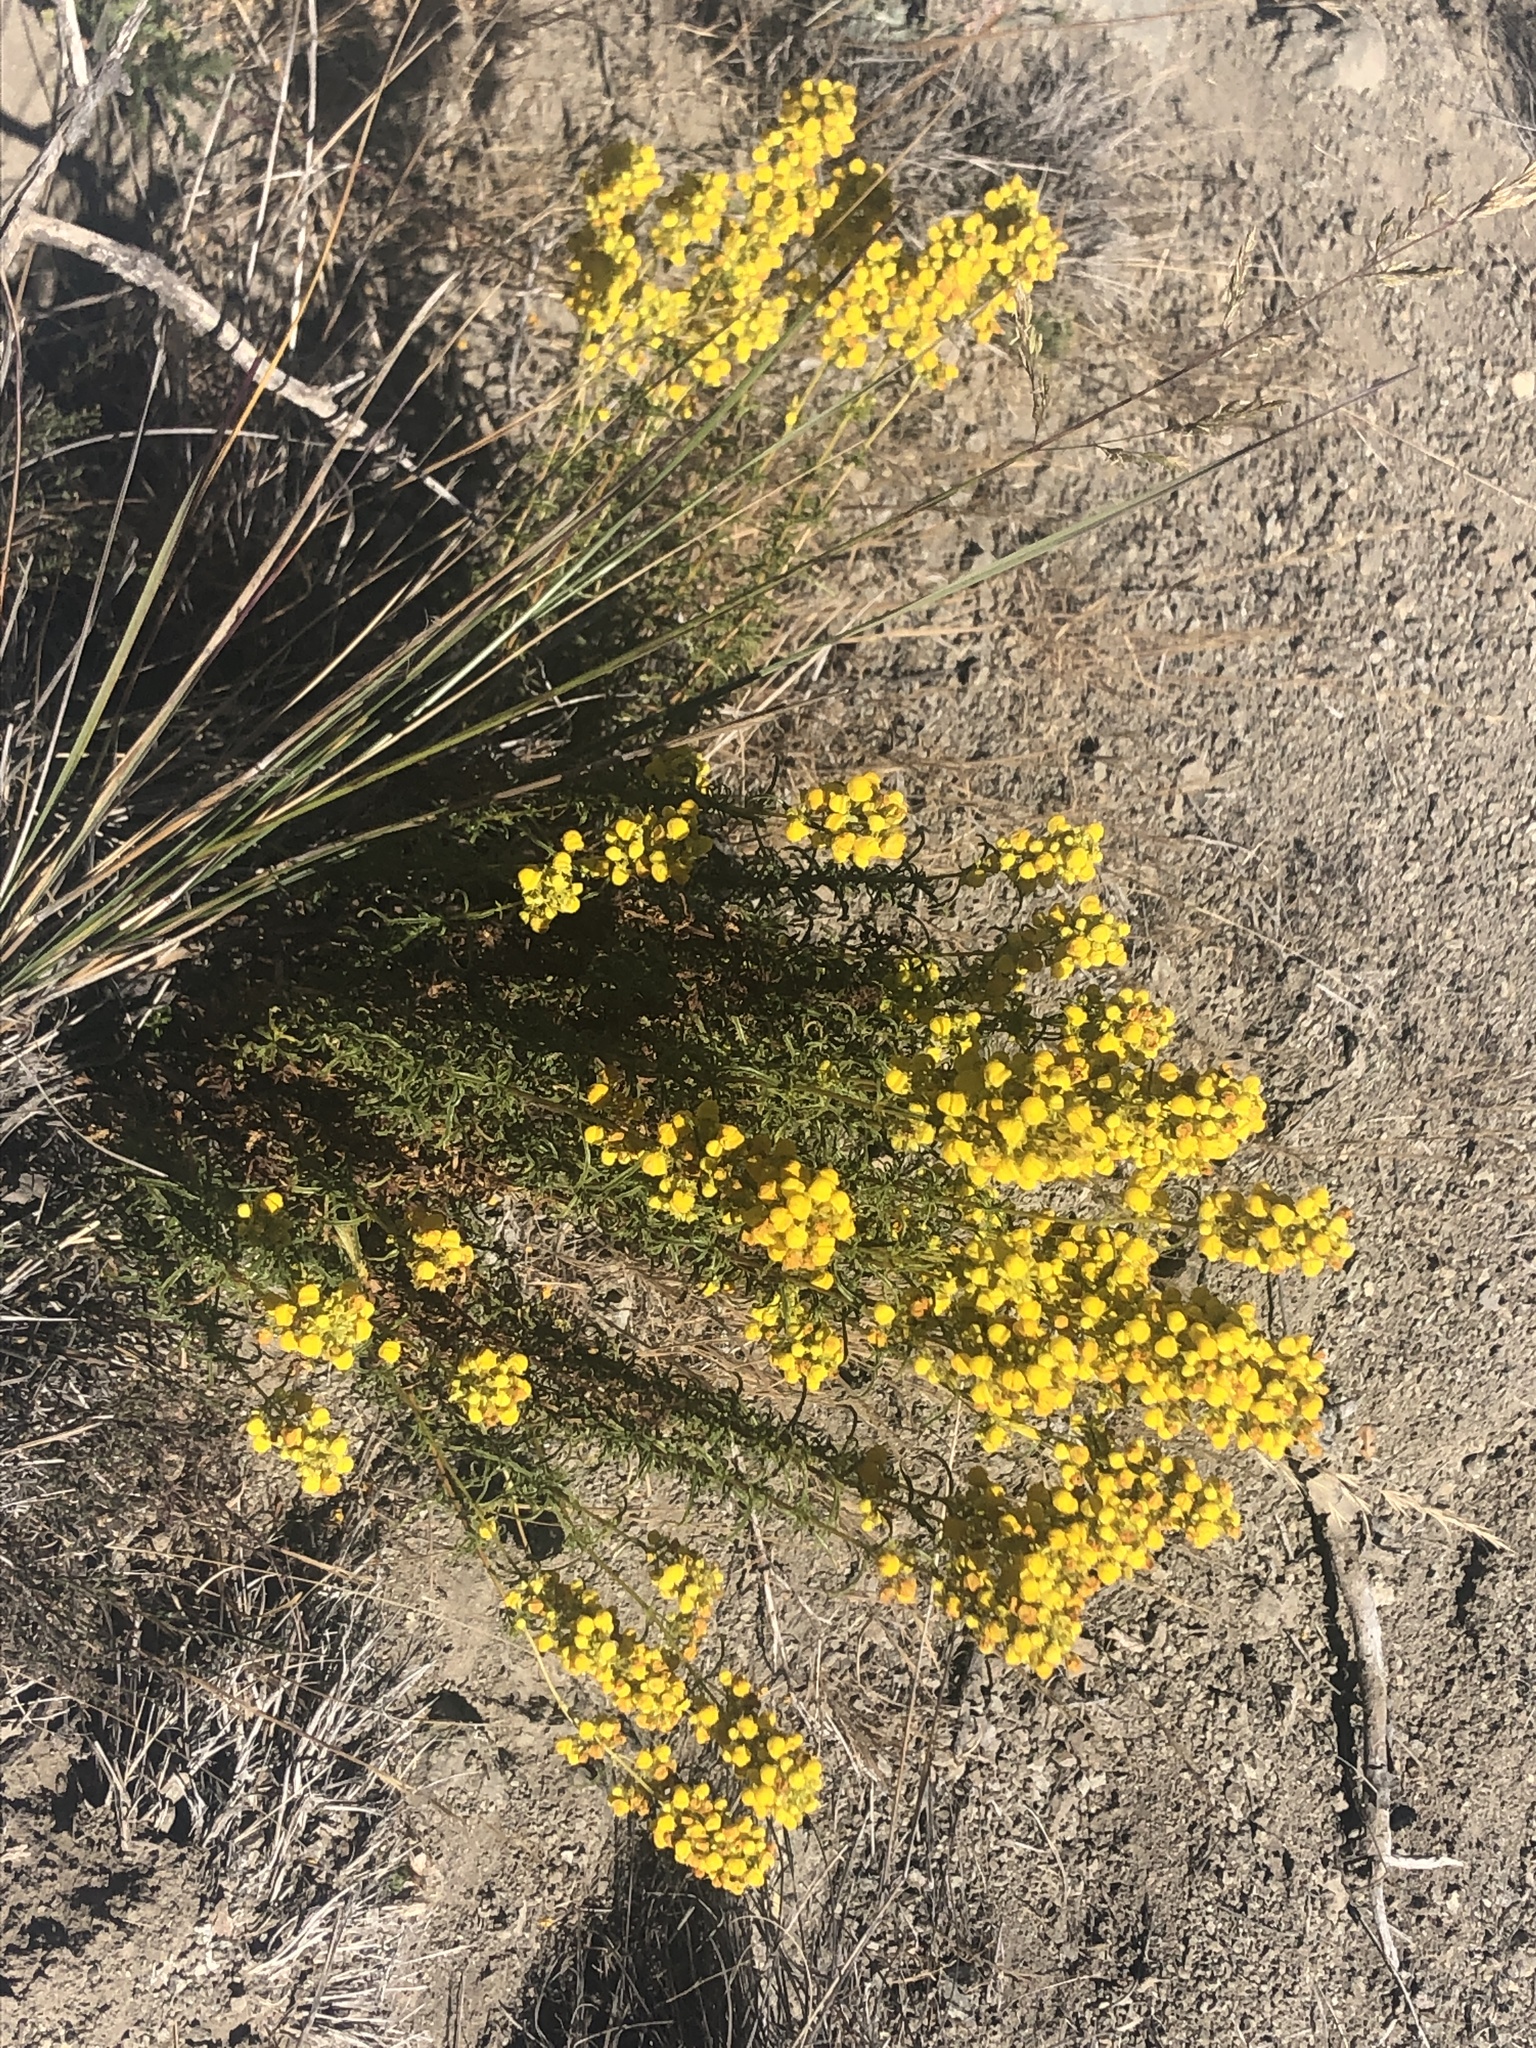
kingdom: Plantae
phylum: Tracheophyta
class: Magnoliopsida
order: Lamiales
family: Calceolariaceae
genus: Calceolaria
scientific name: Calceolaria thyrsiflora
